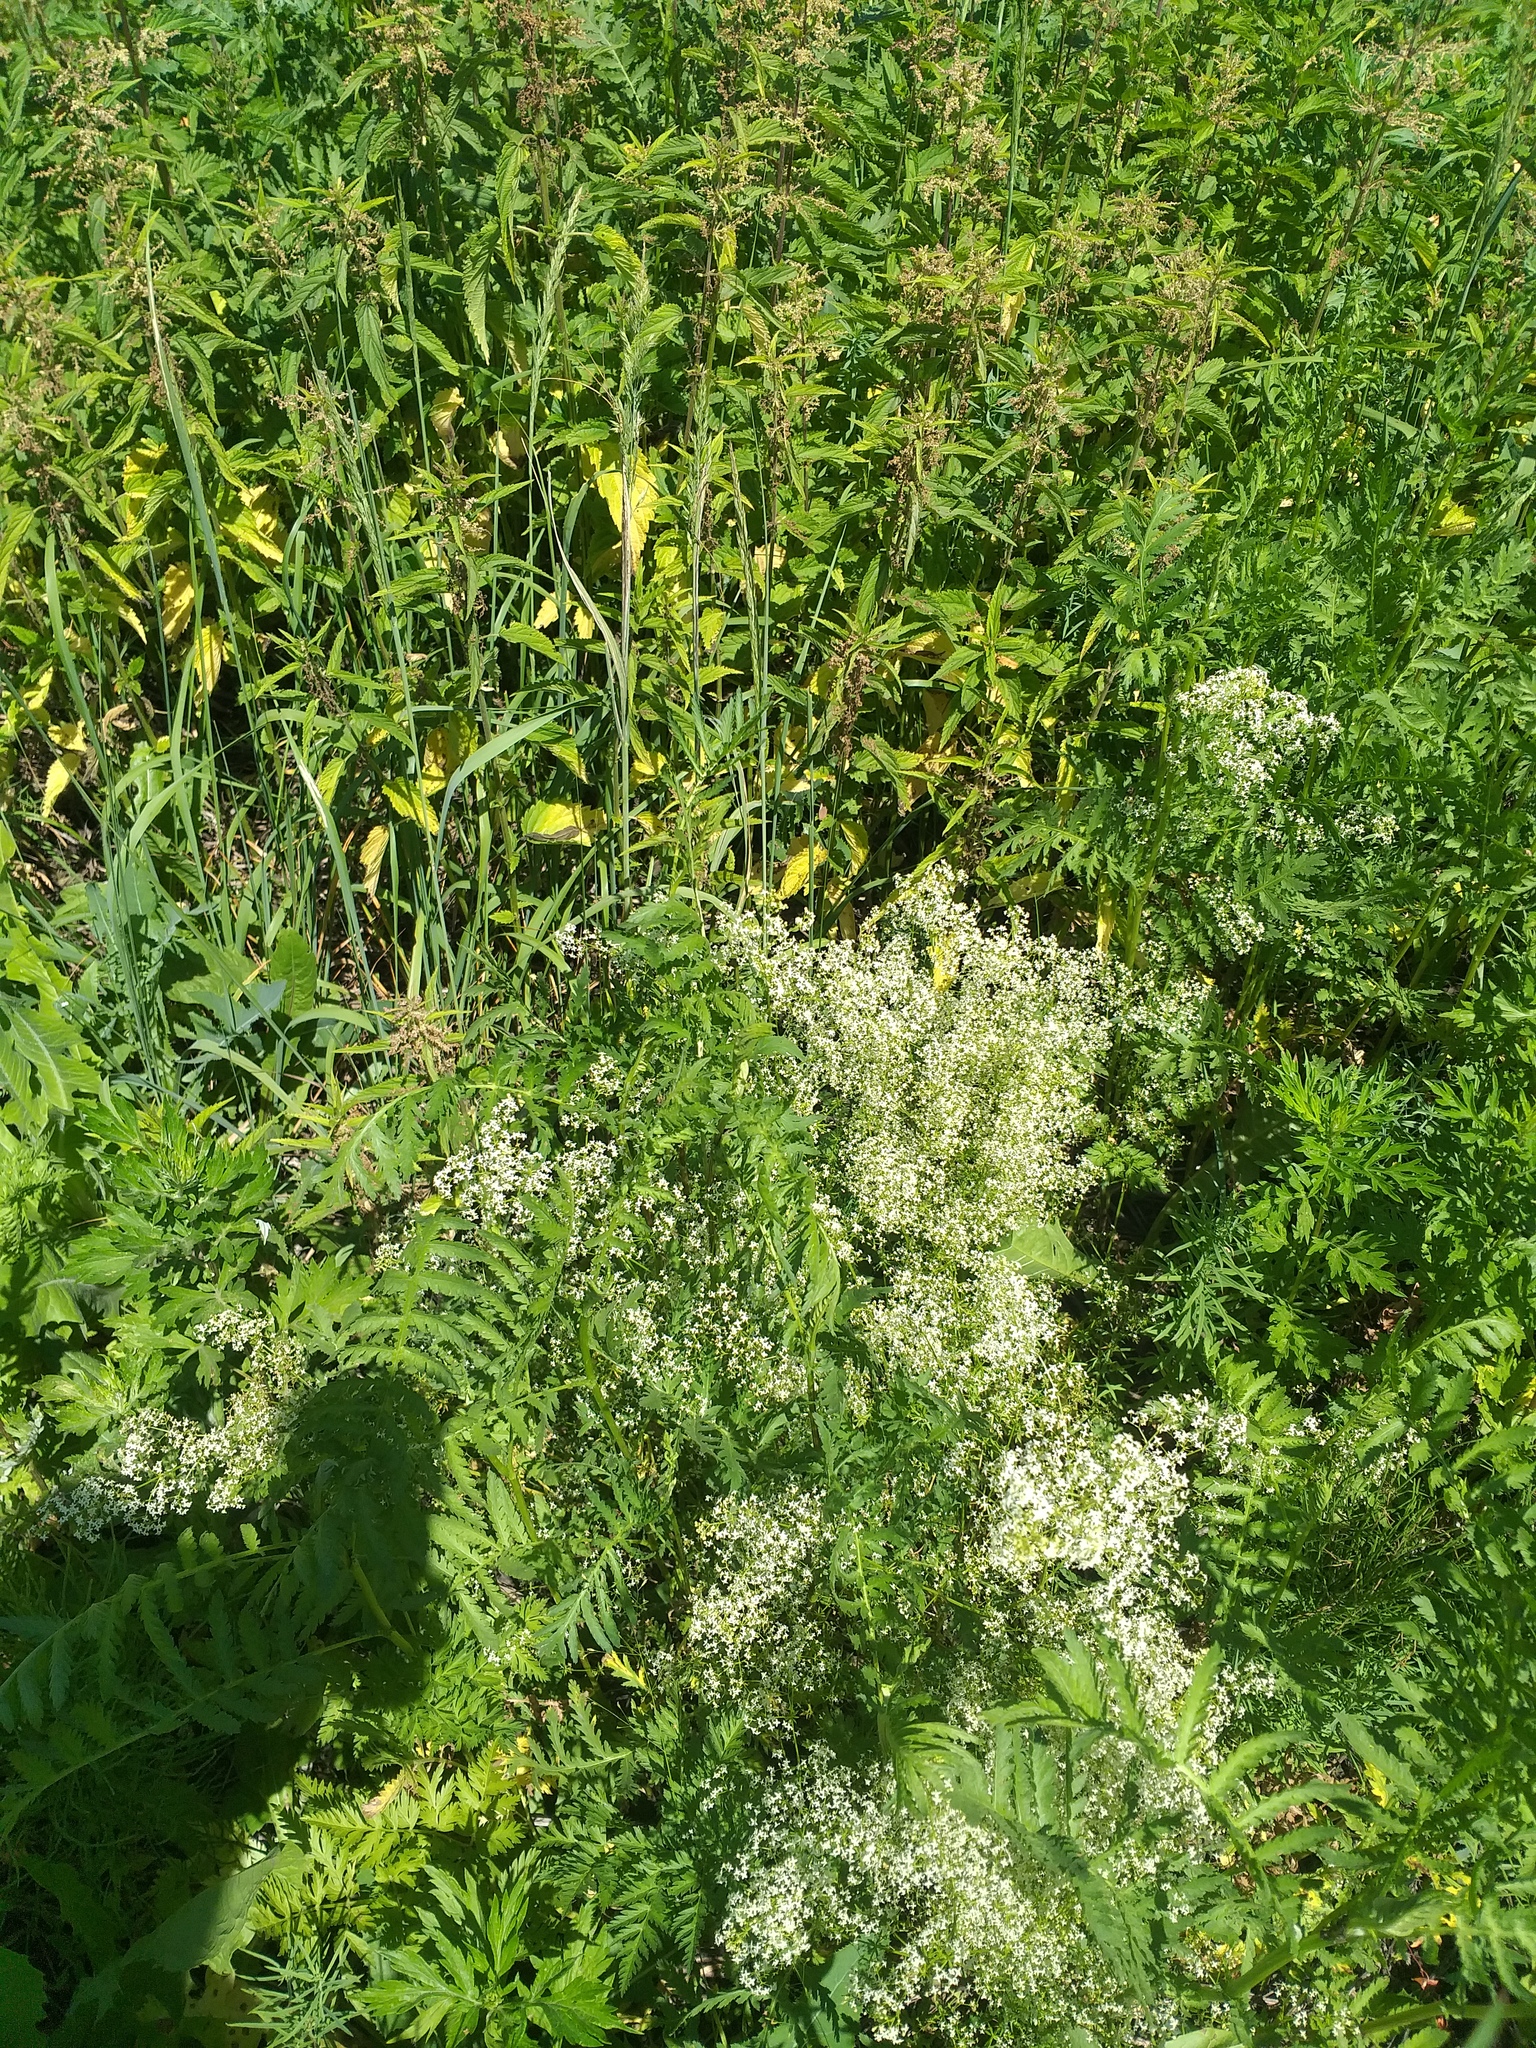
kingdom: Plantae
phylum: Tracheophyta
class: Magnoliopsida
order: Gentianales
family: Rubiaceae
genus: Galium
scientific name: Galium mollugo
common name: Hedge bedstraw
